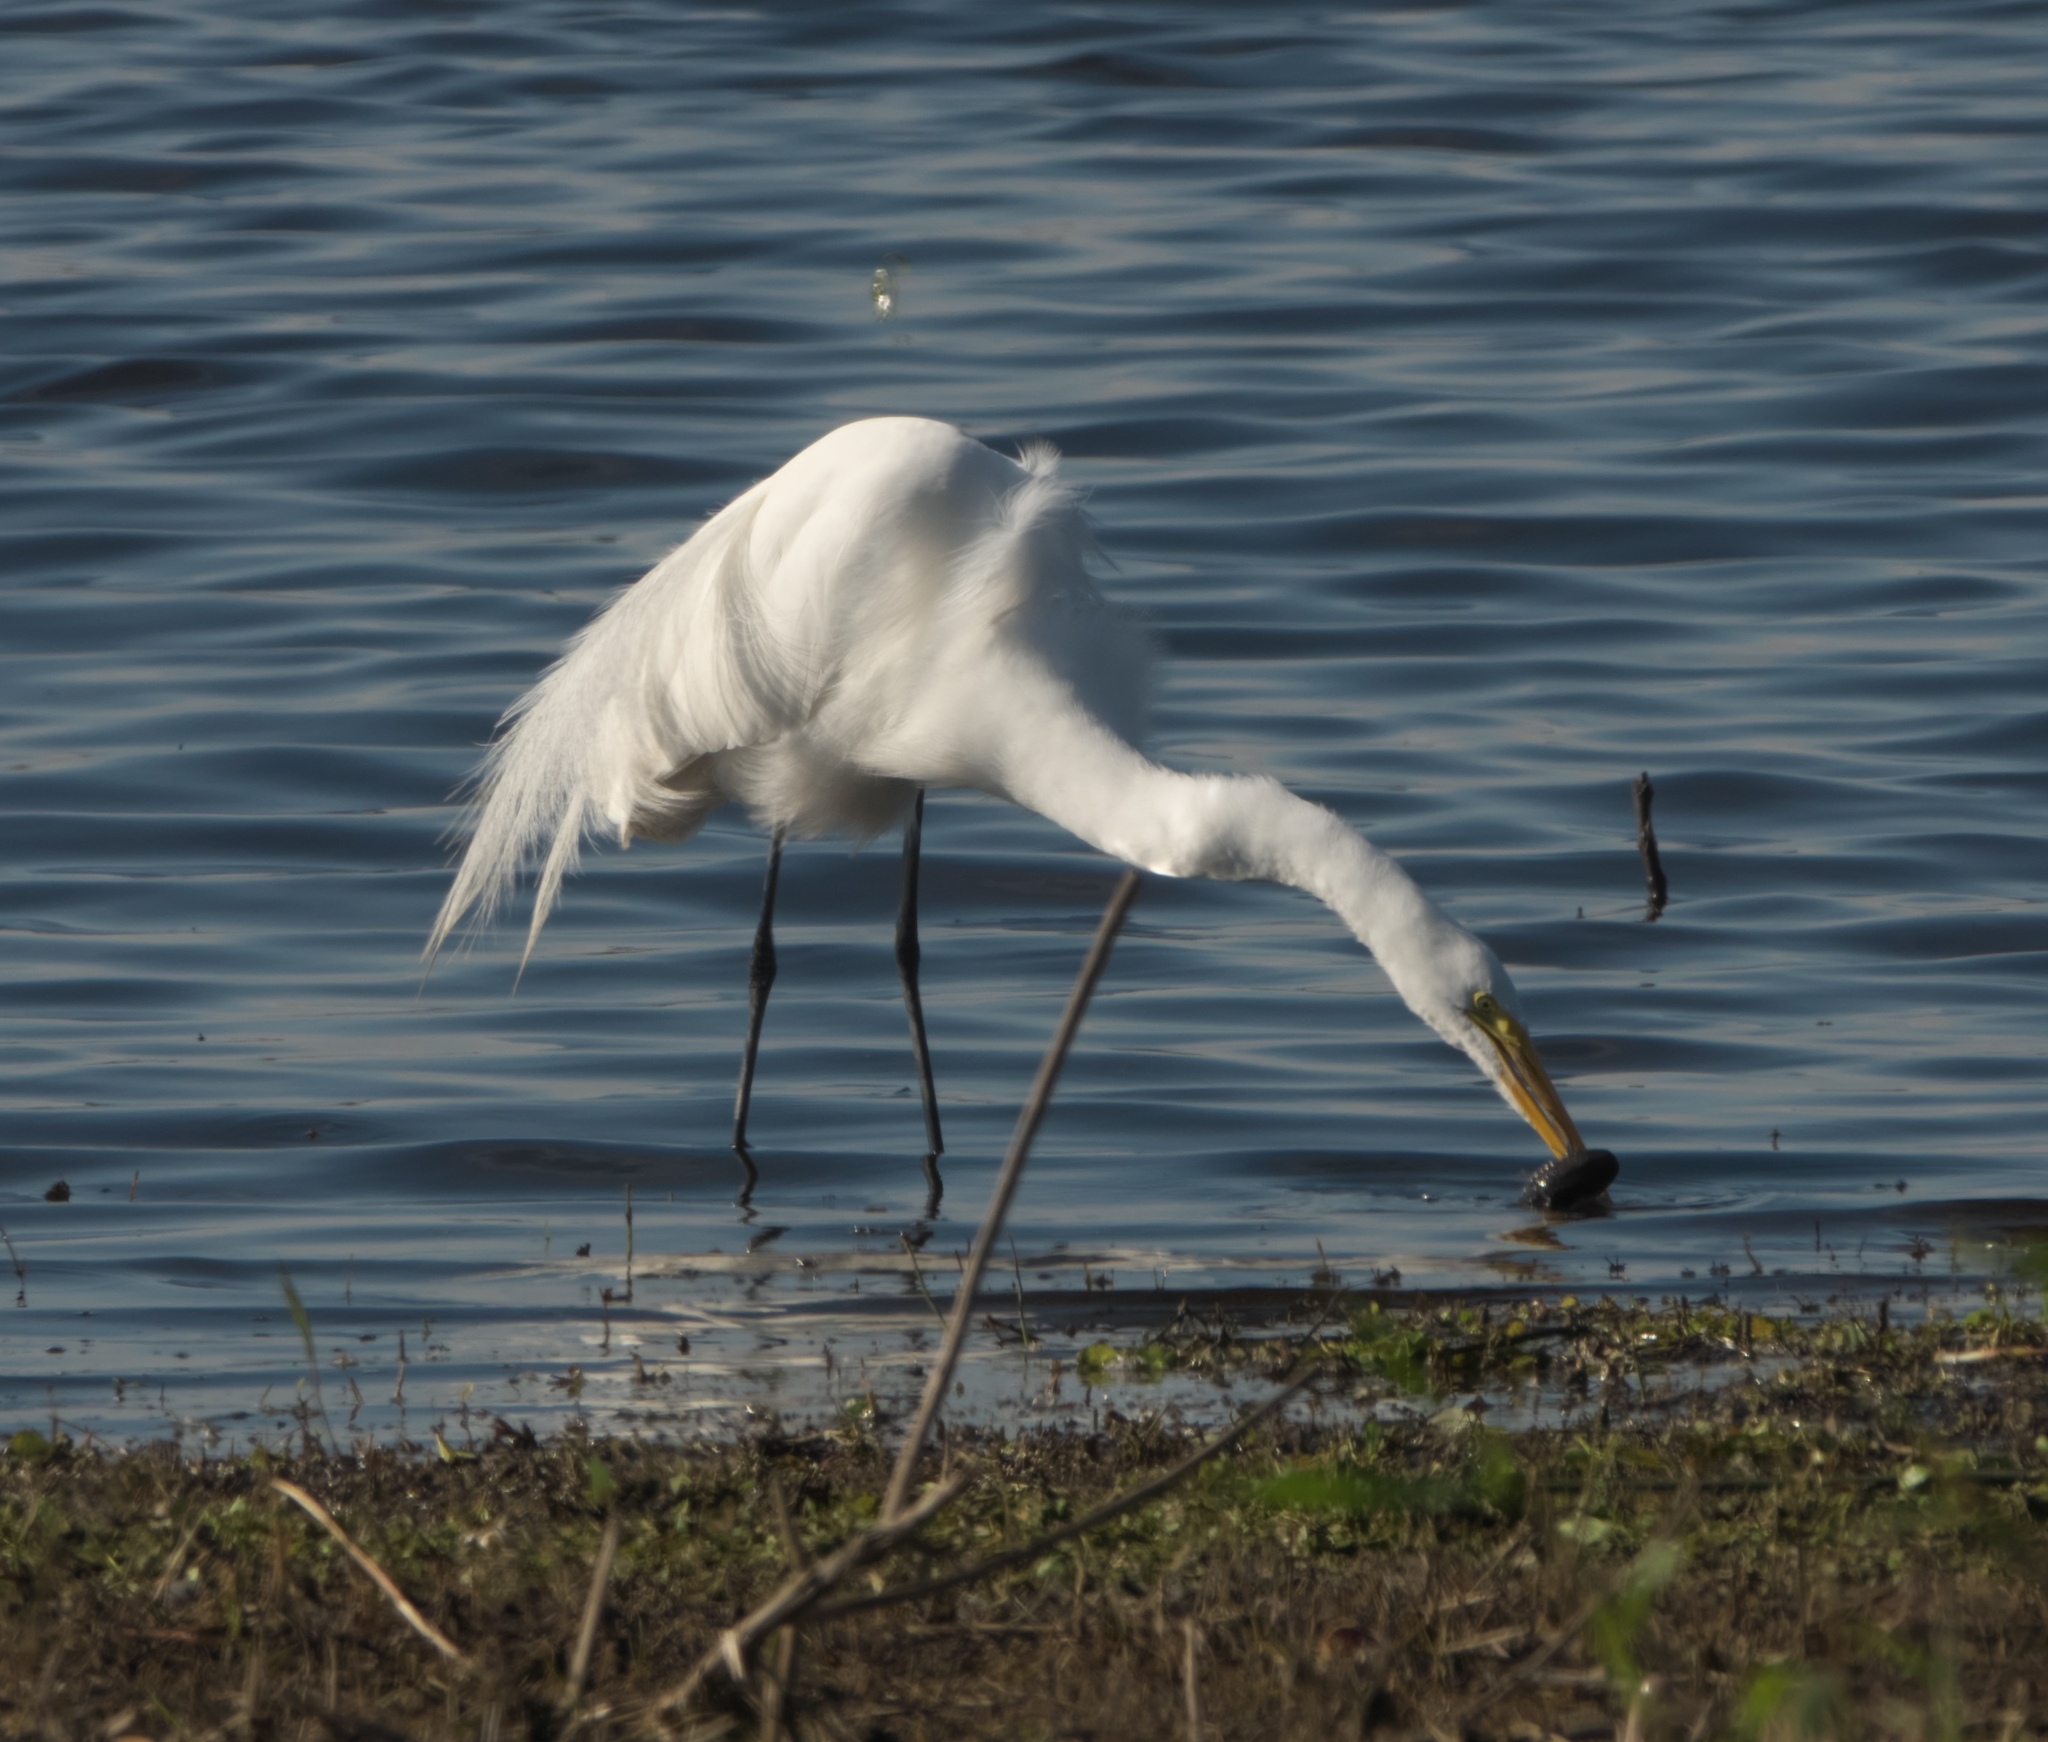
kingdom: Animalia
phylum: Chordata
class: Aves
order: Pelecaniformes
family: Ardeidae
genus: Ardea
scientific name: Ardea alba
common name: Great egret
